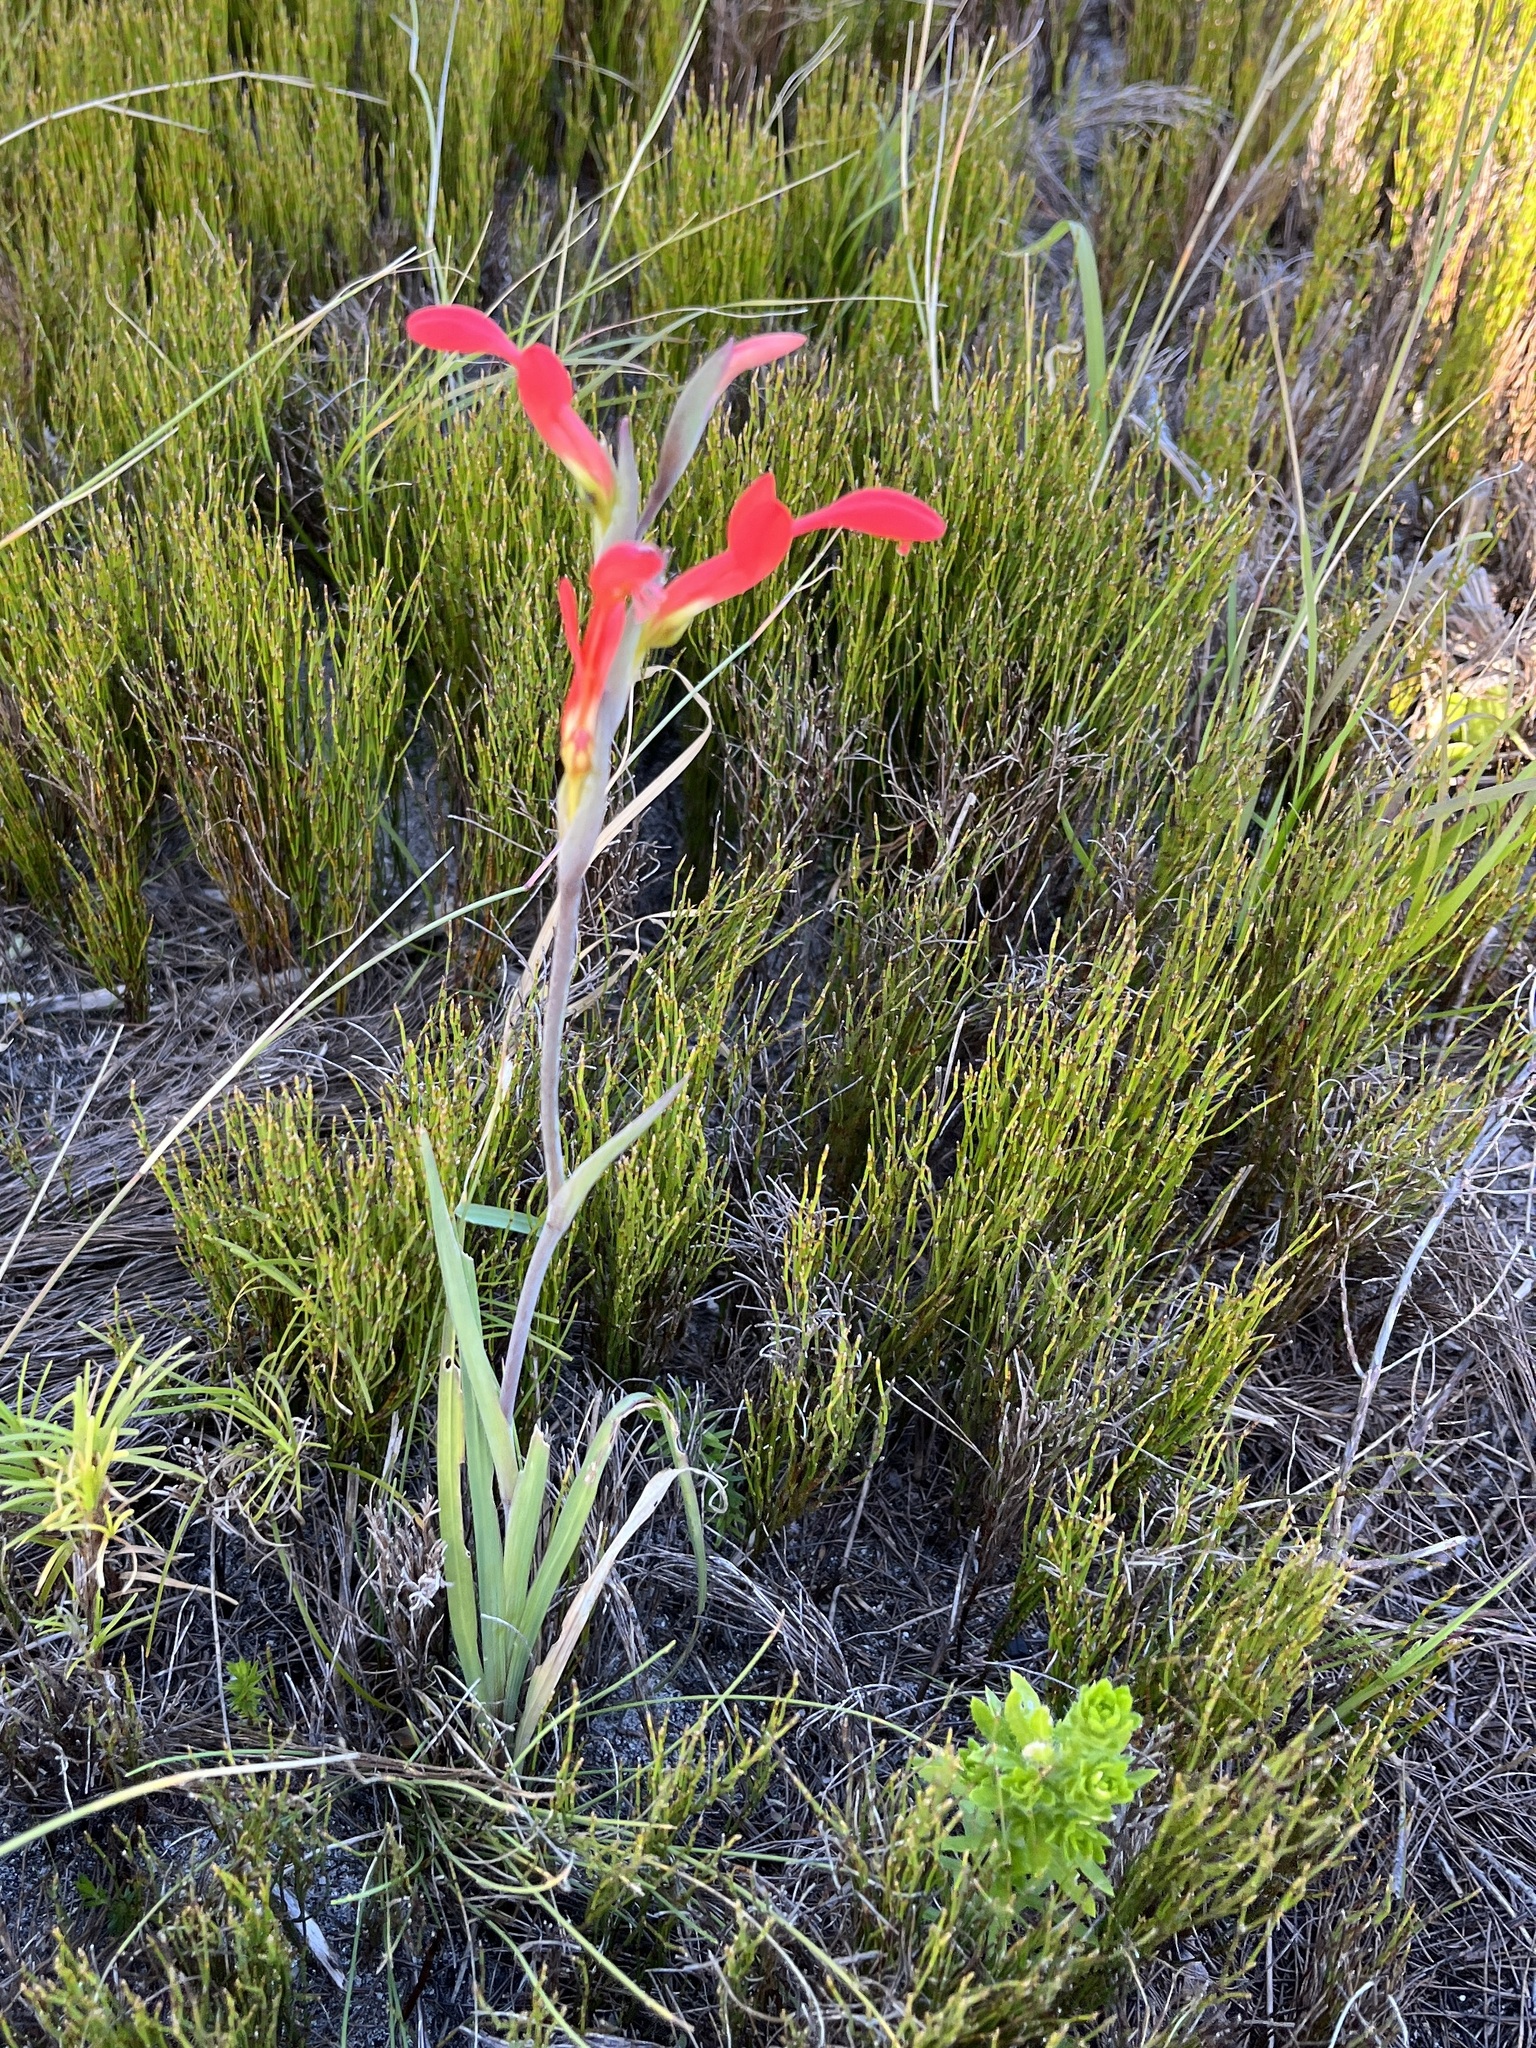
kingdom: Plantae
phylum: Tracheophyta
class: Liliopsida
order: Asparagales
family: Iridaceae
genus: Gladiolus
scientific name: Gladiolus cunonius
